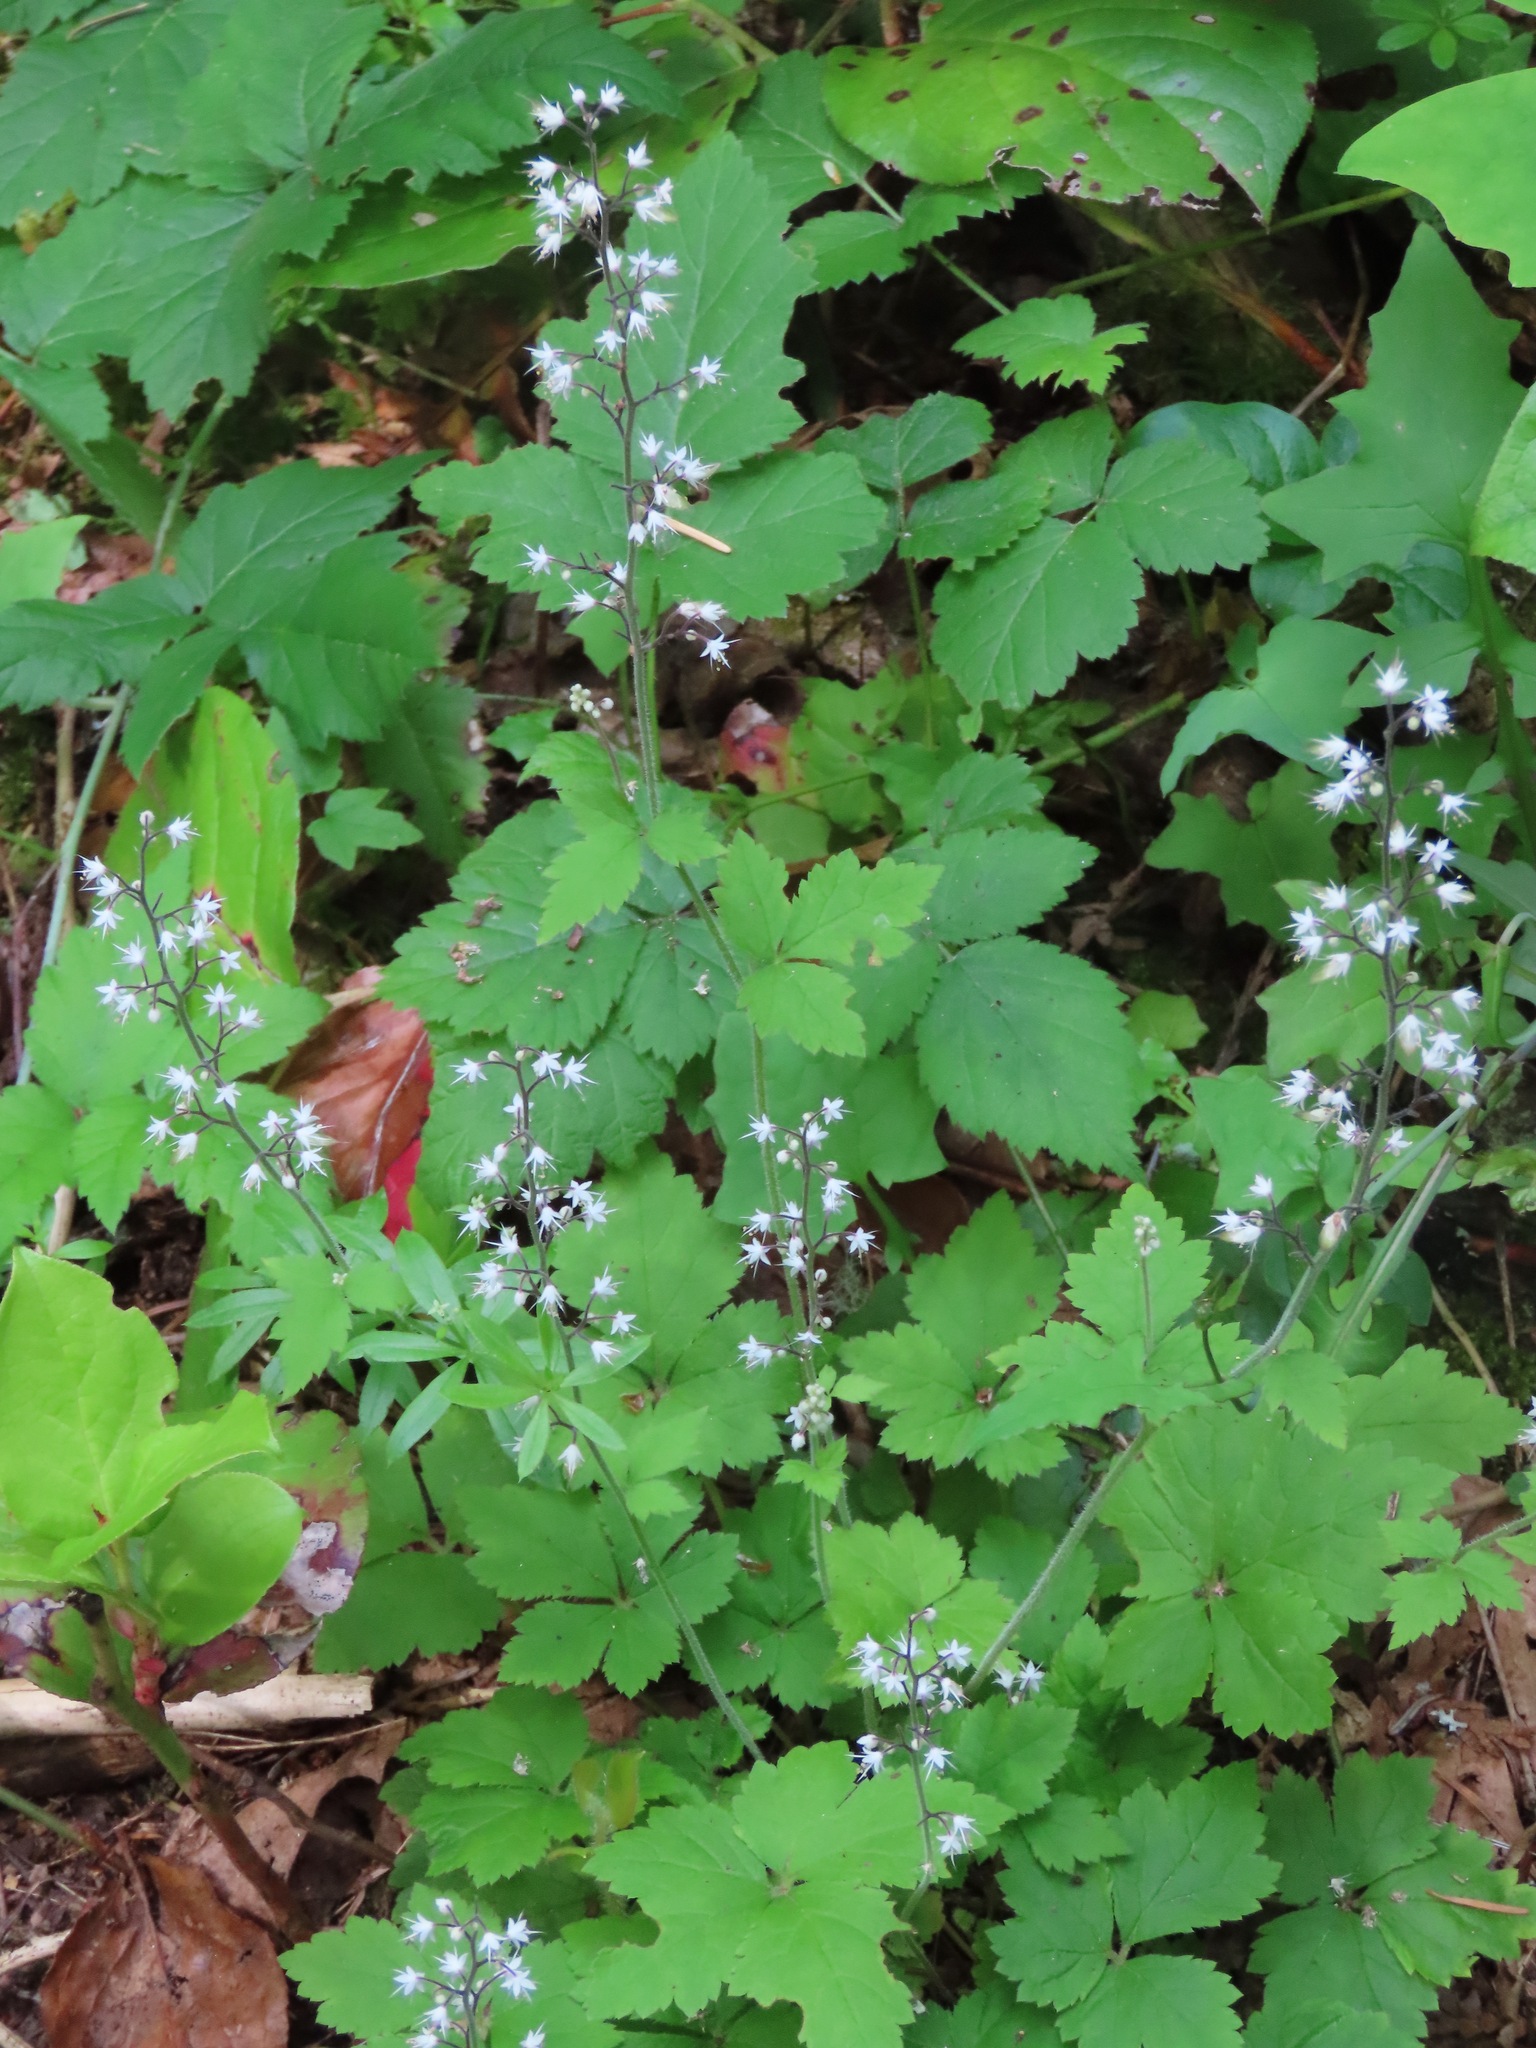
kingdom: Plantae
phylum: Tracheophyta
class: Magnoliopsida
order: Saxifragales
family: Saxifragaceae
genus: Tiarella
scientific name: Tiarella trifoliata
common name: Sugar-scoop
